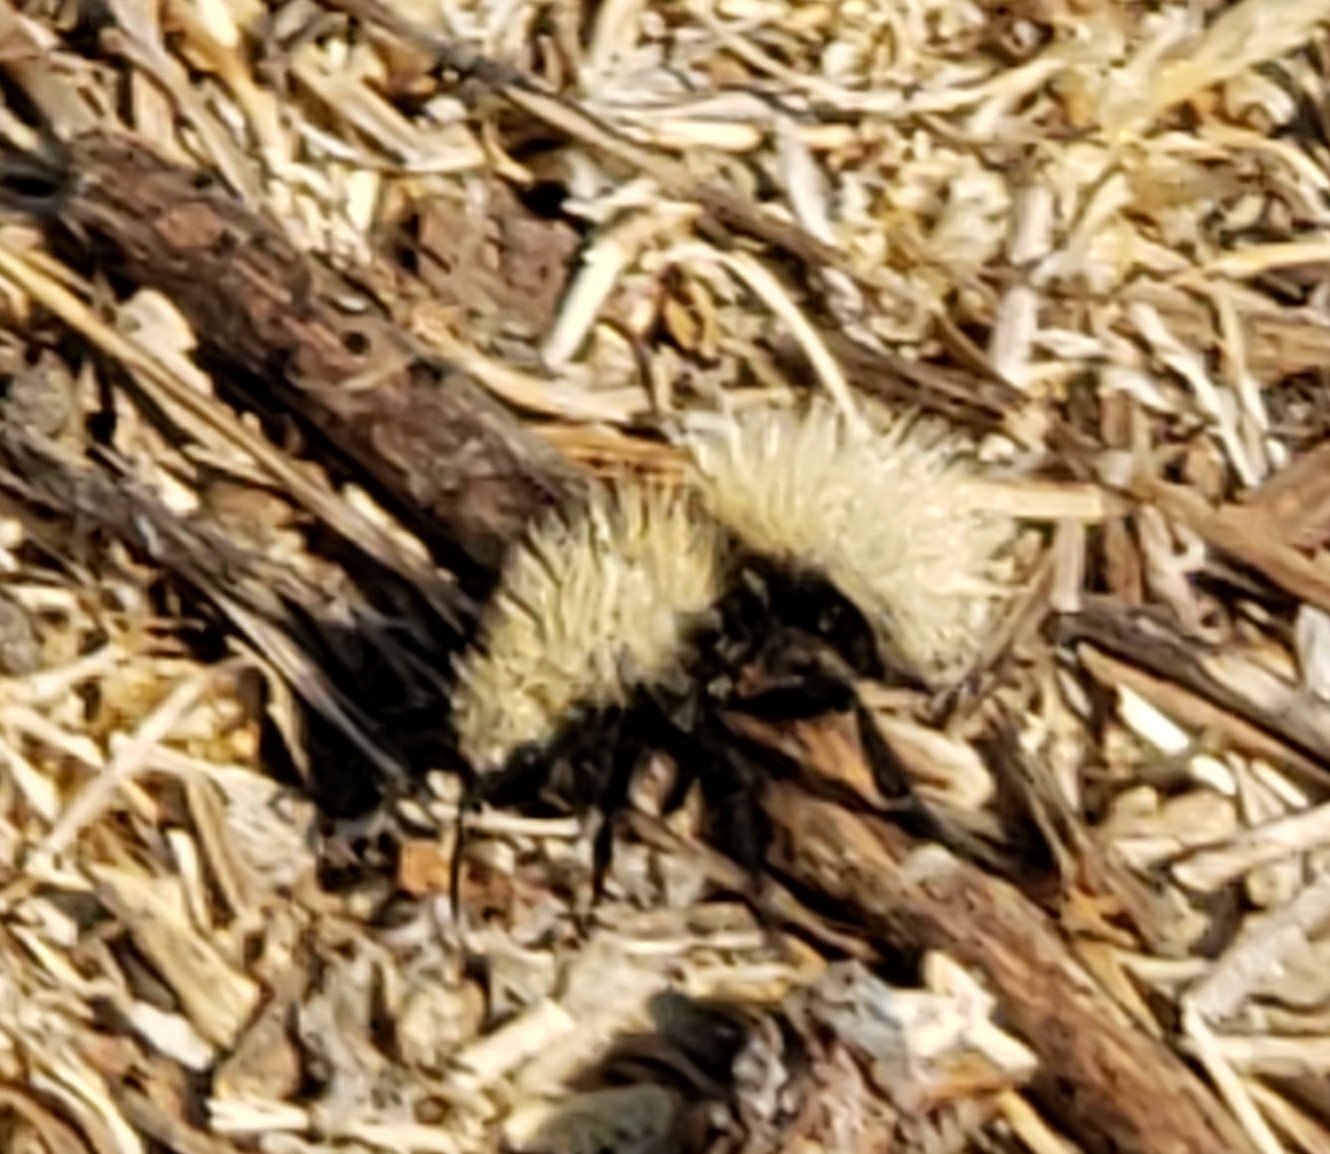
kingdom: Animalia
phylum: Arthropoda
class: Insecta
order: Hymenoptera
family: Mutillidae
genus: Dasymutilla
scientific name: Dasymutilla
